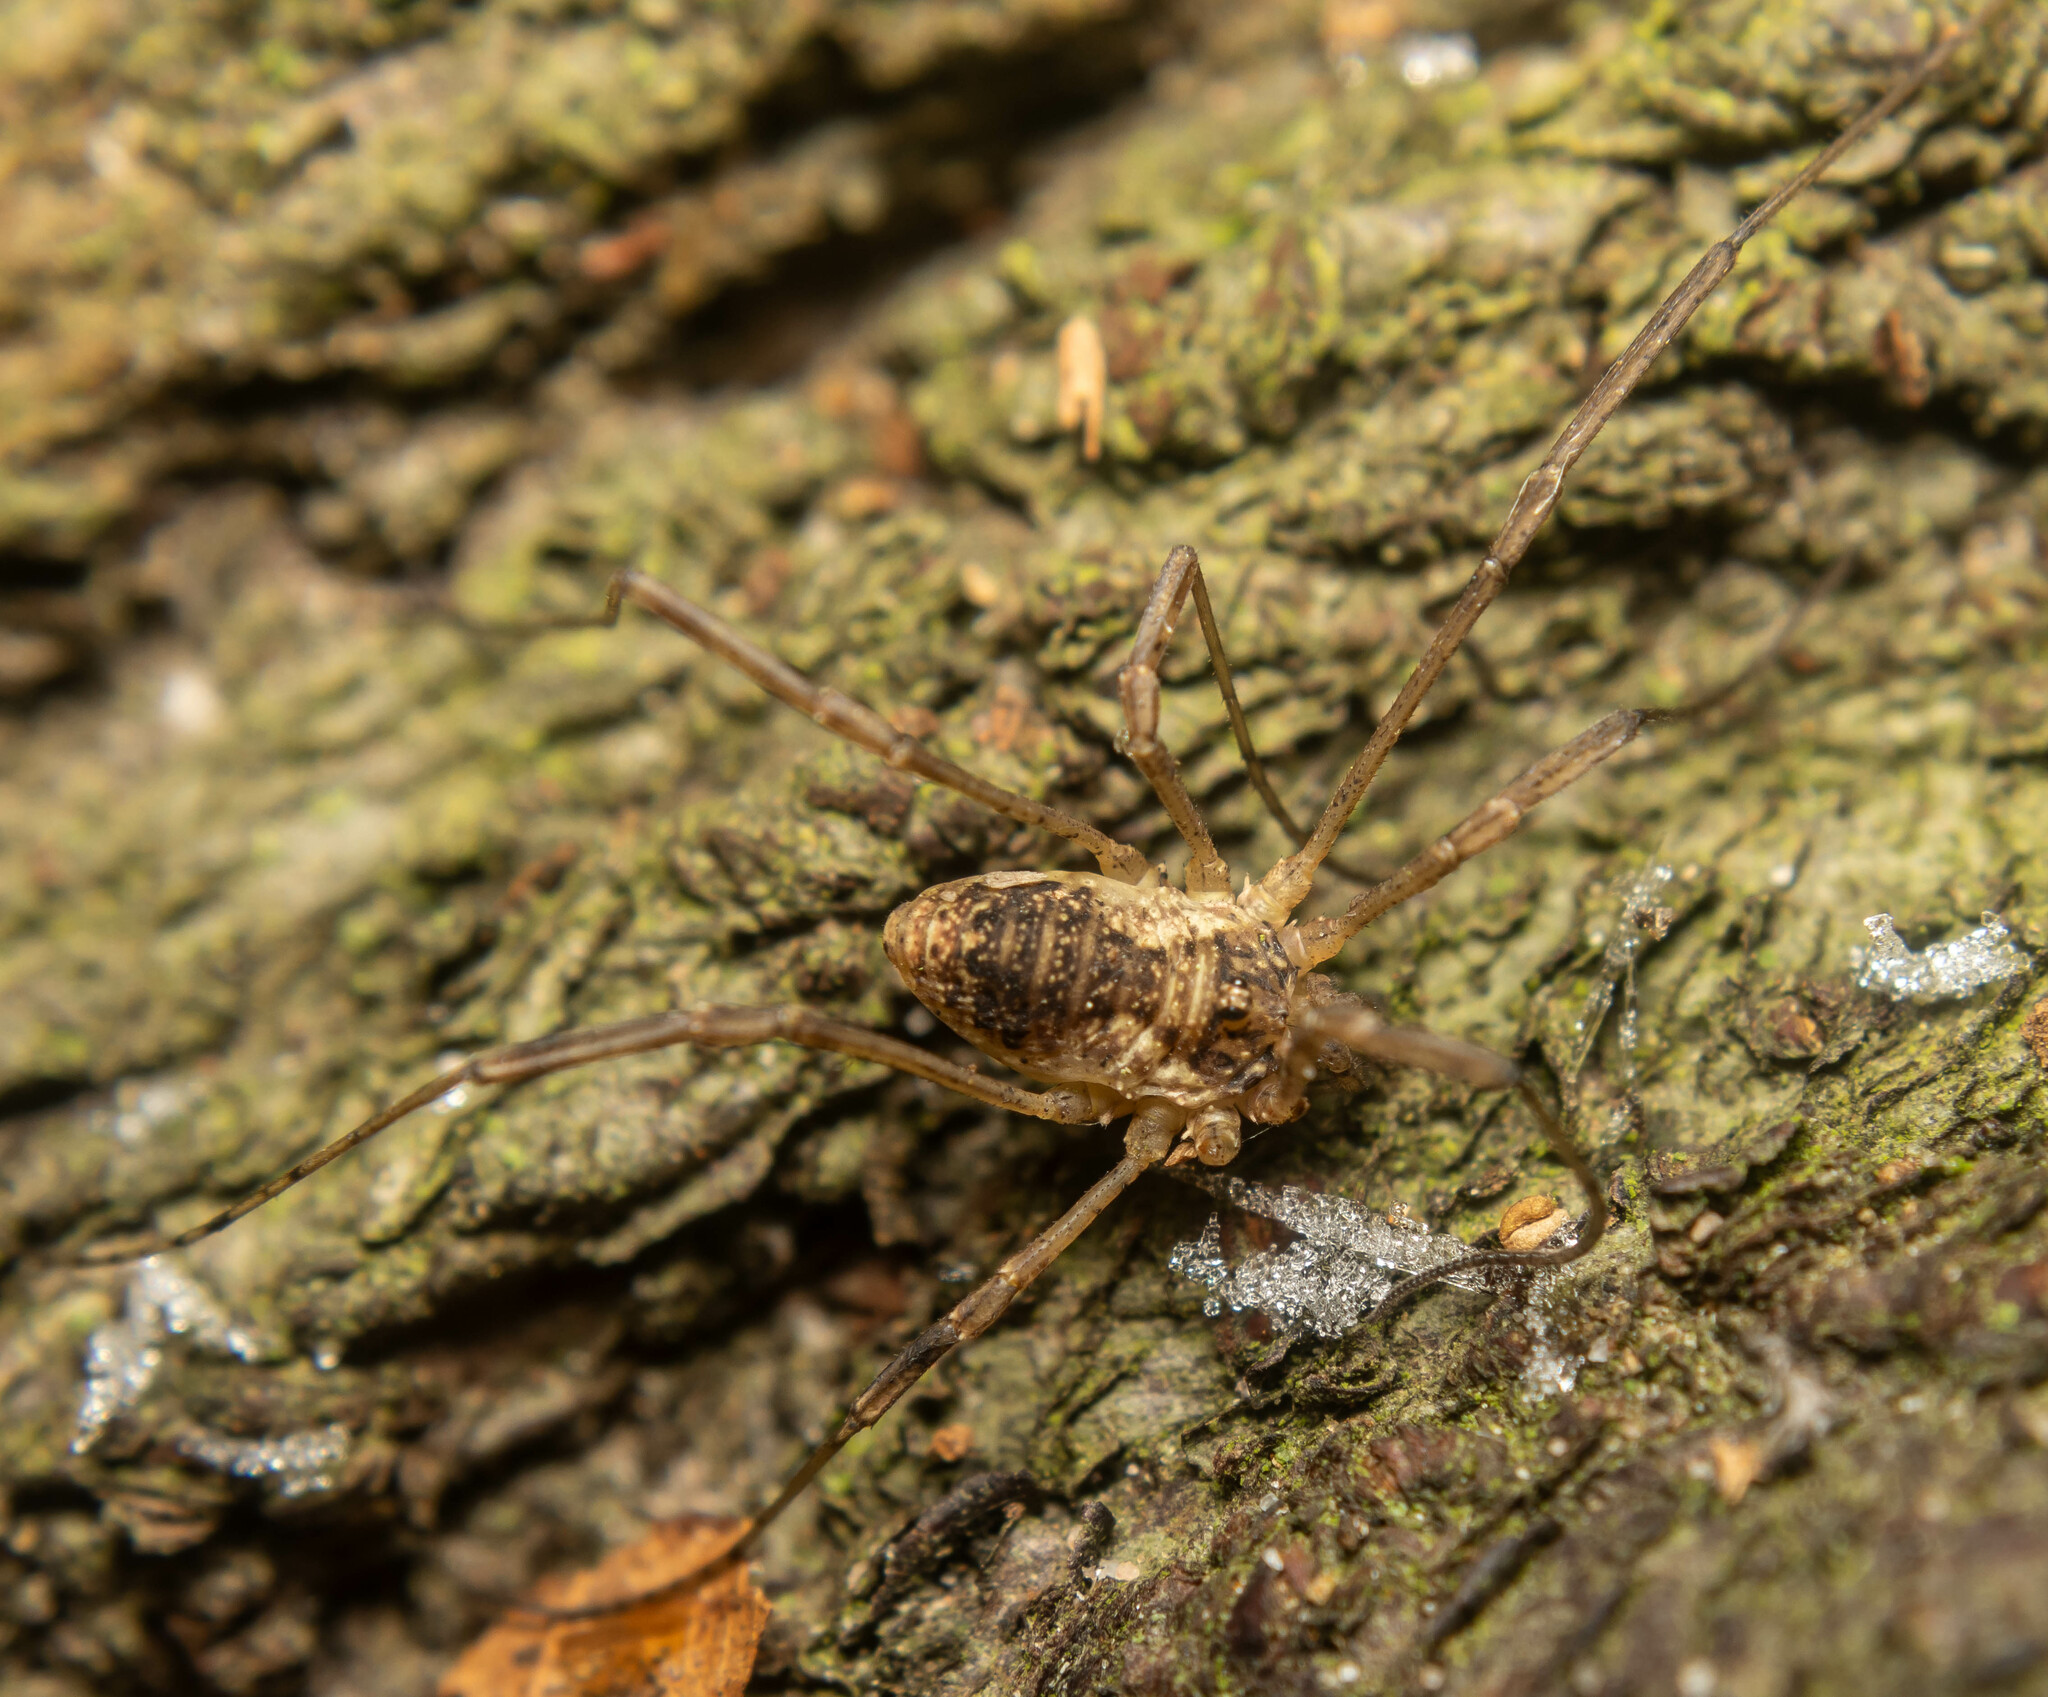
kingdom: Animalia
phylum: Arthropoda
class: Arachnida
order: Opiliones
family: Phalangiidae
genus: Oligolophus
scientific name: Oligolophus tridens
